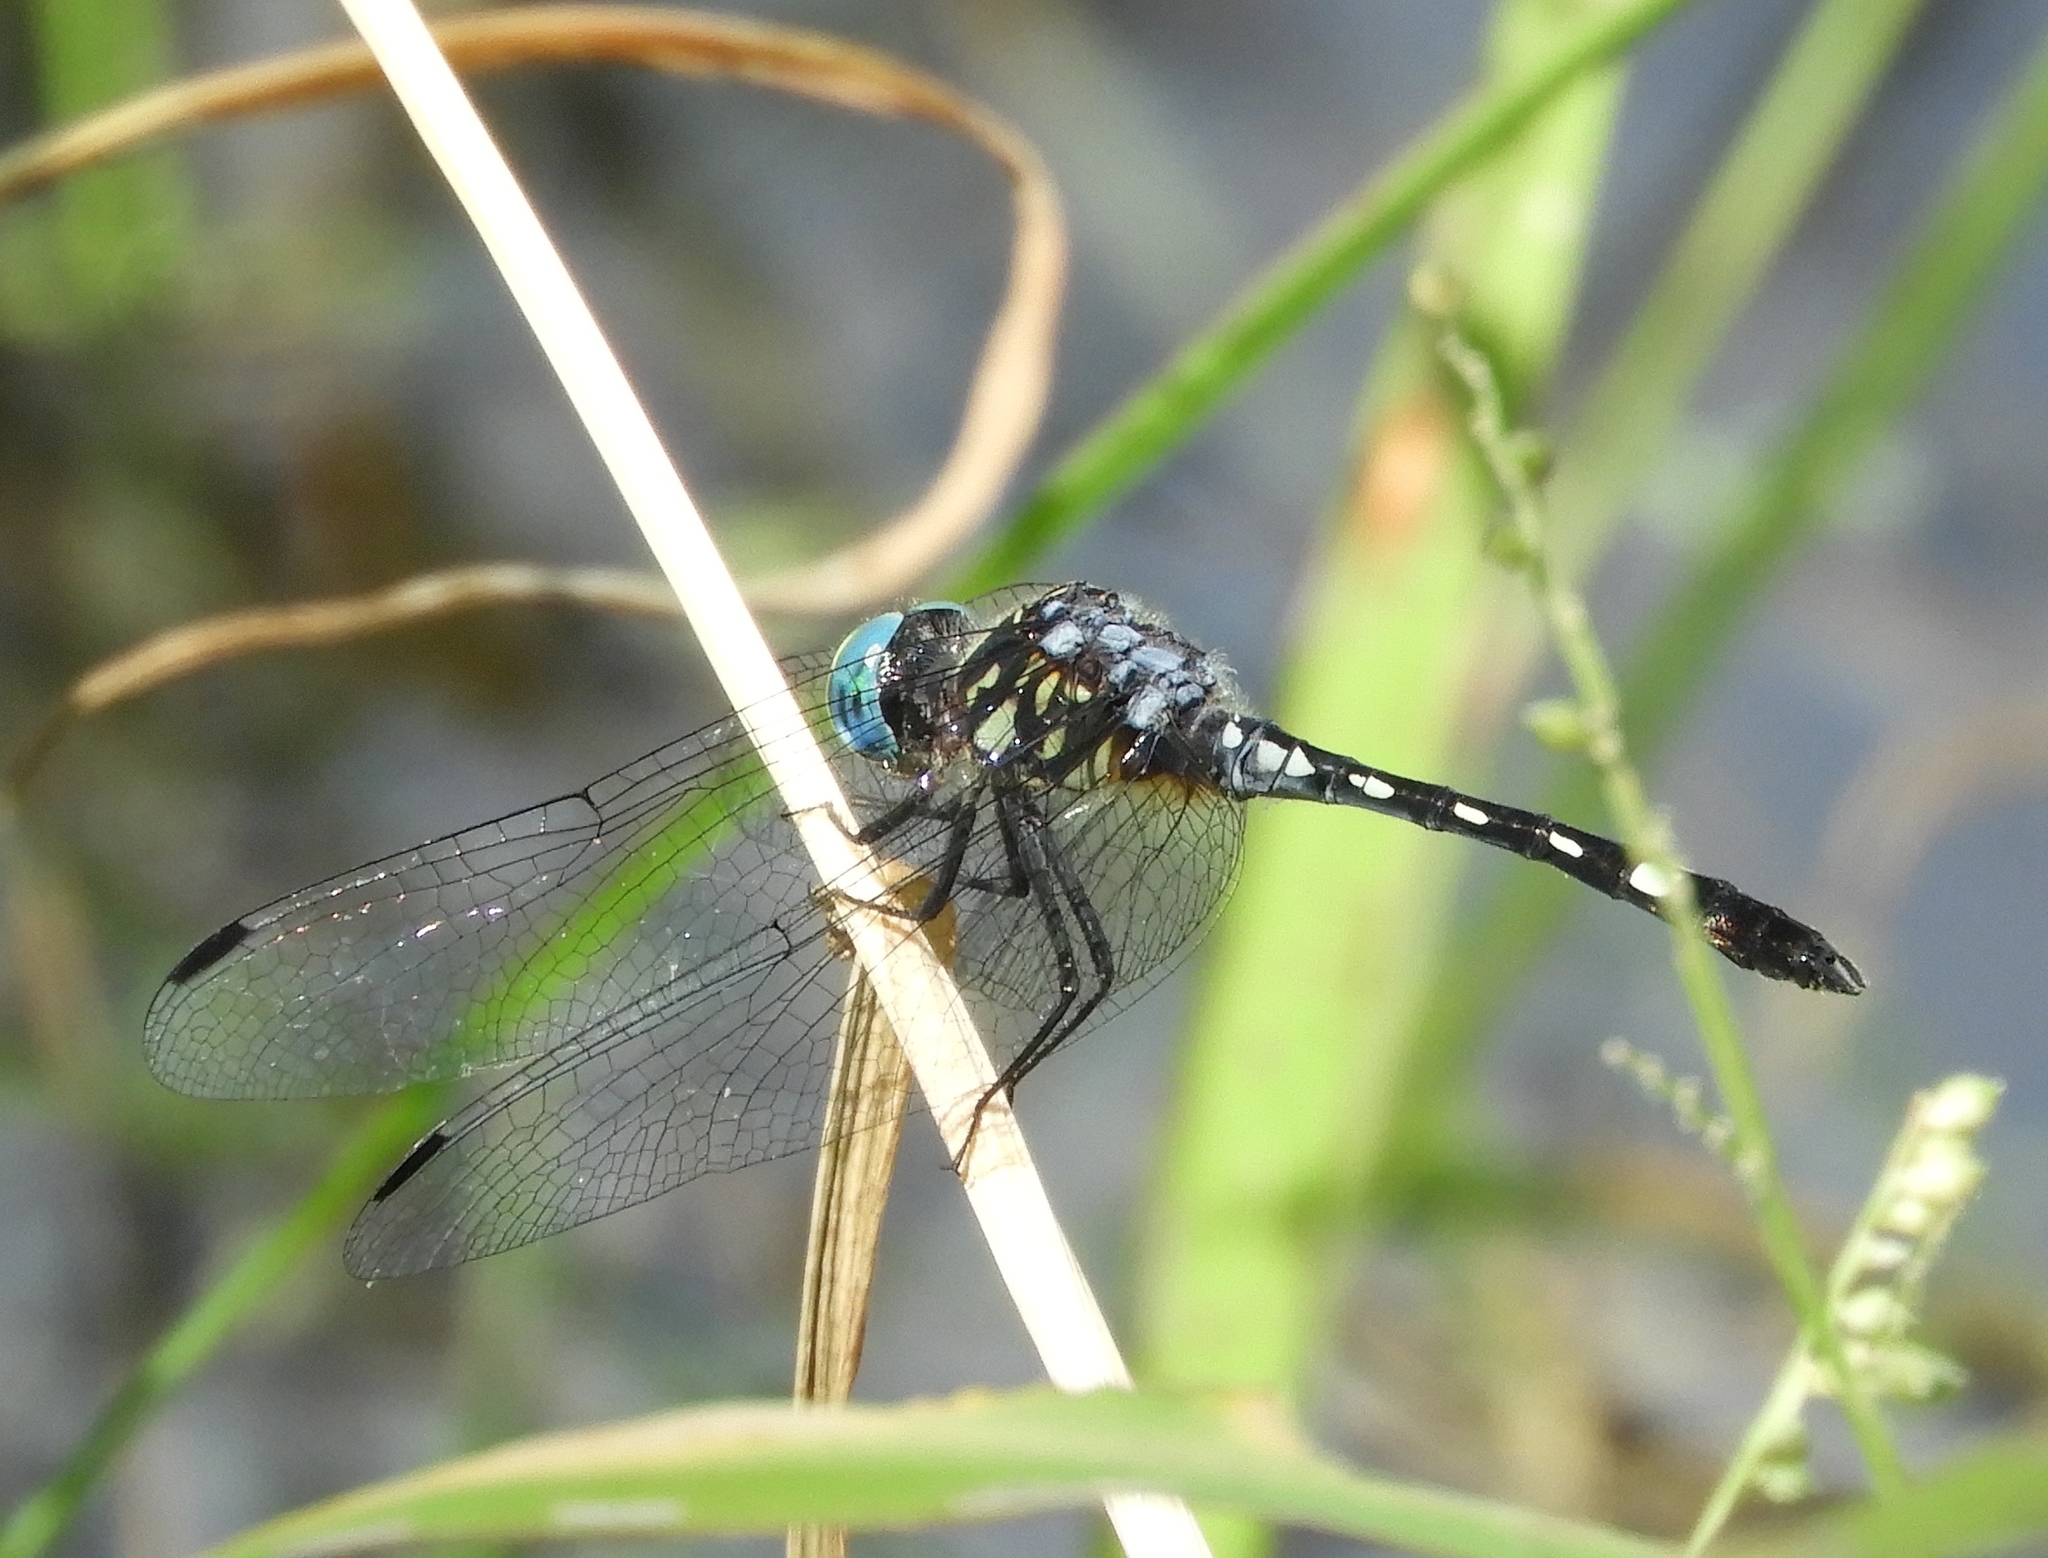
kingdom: Animalia
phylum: Arthropoda
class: Insecta
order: Odonata
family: Libellulidae
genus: Micrathyria
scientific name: Micrathyria hagenii
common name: Thornbush dasher
